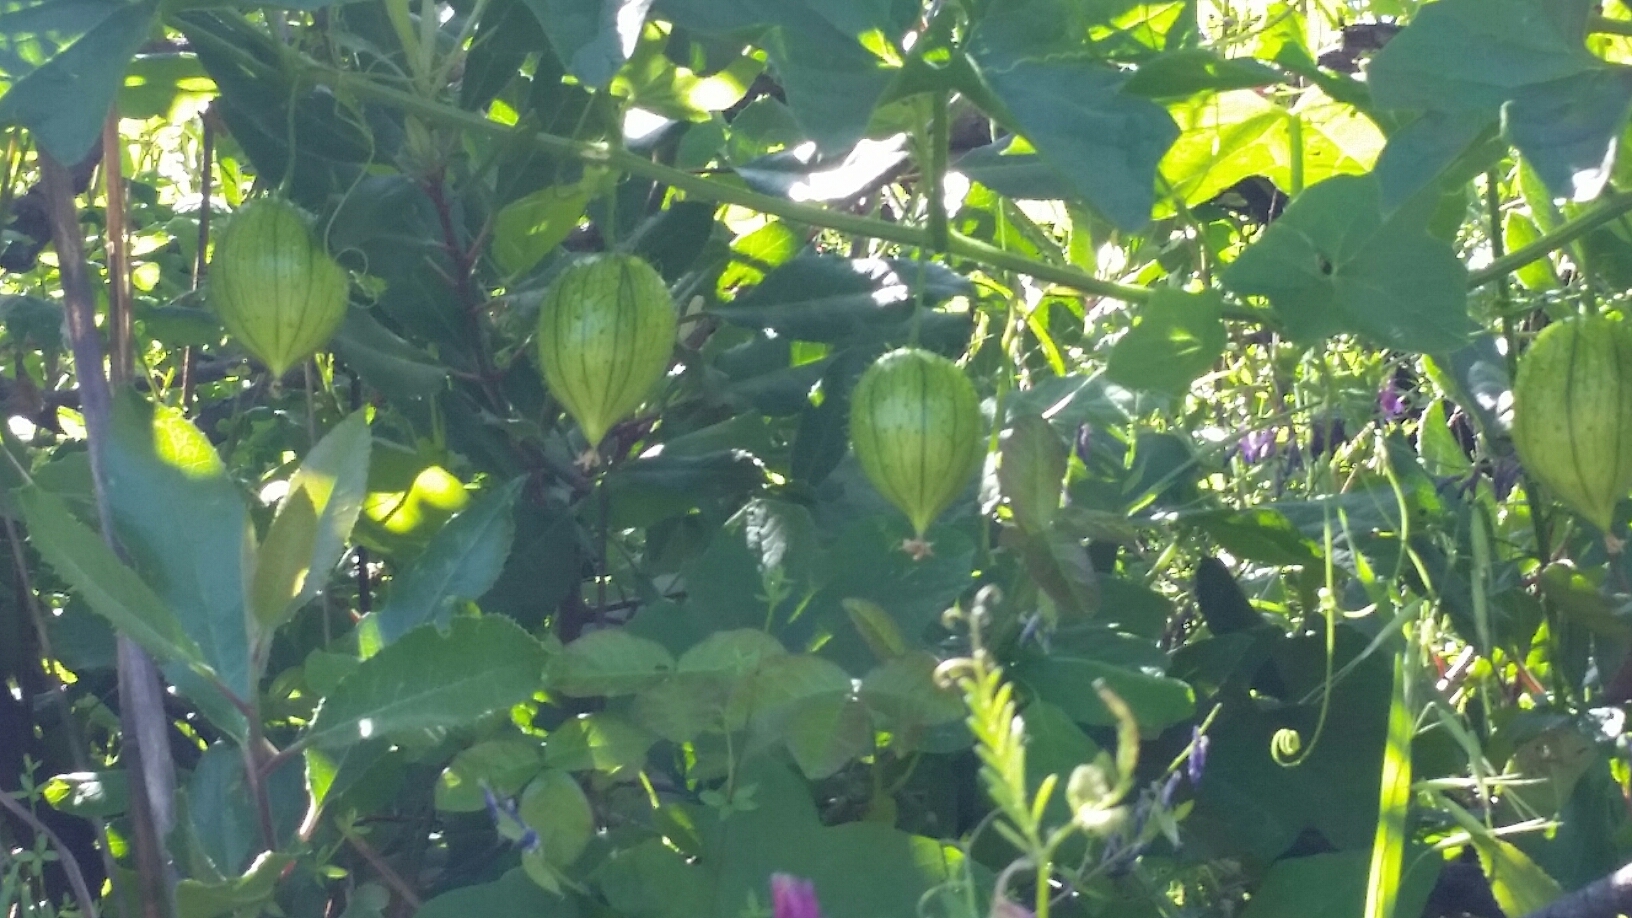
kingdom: Plantae
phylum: Tracheophyta
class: Magnoliopsida
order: Cucurbitales
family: Cucurbitaceae
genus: Marah
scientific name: Marah oregana
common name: Coastal manroot
